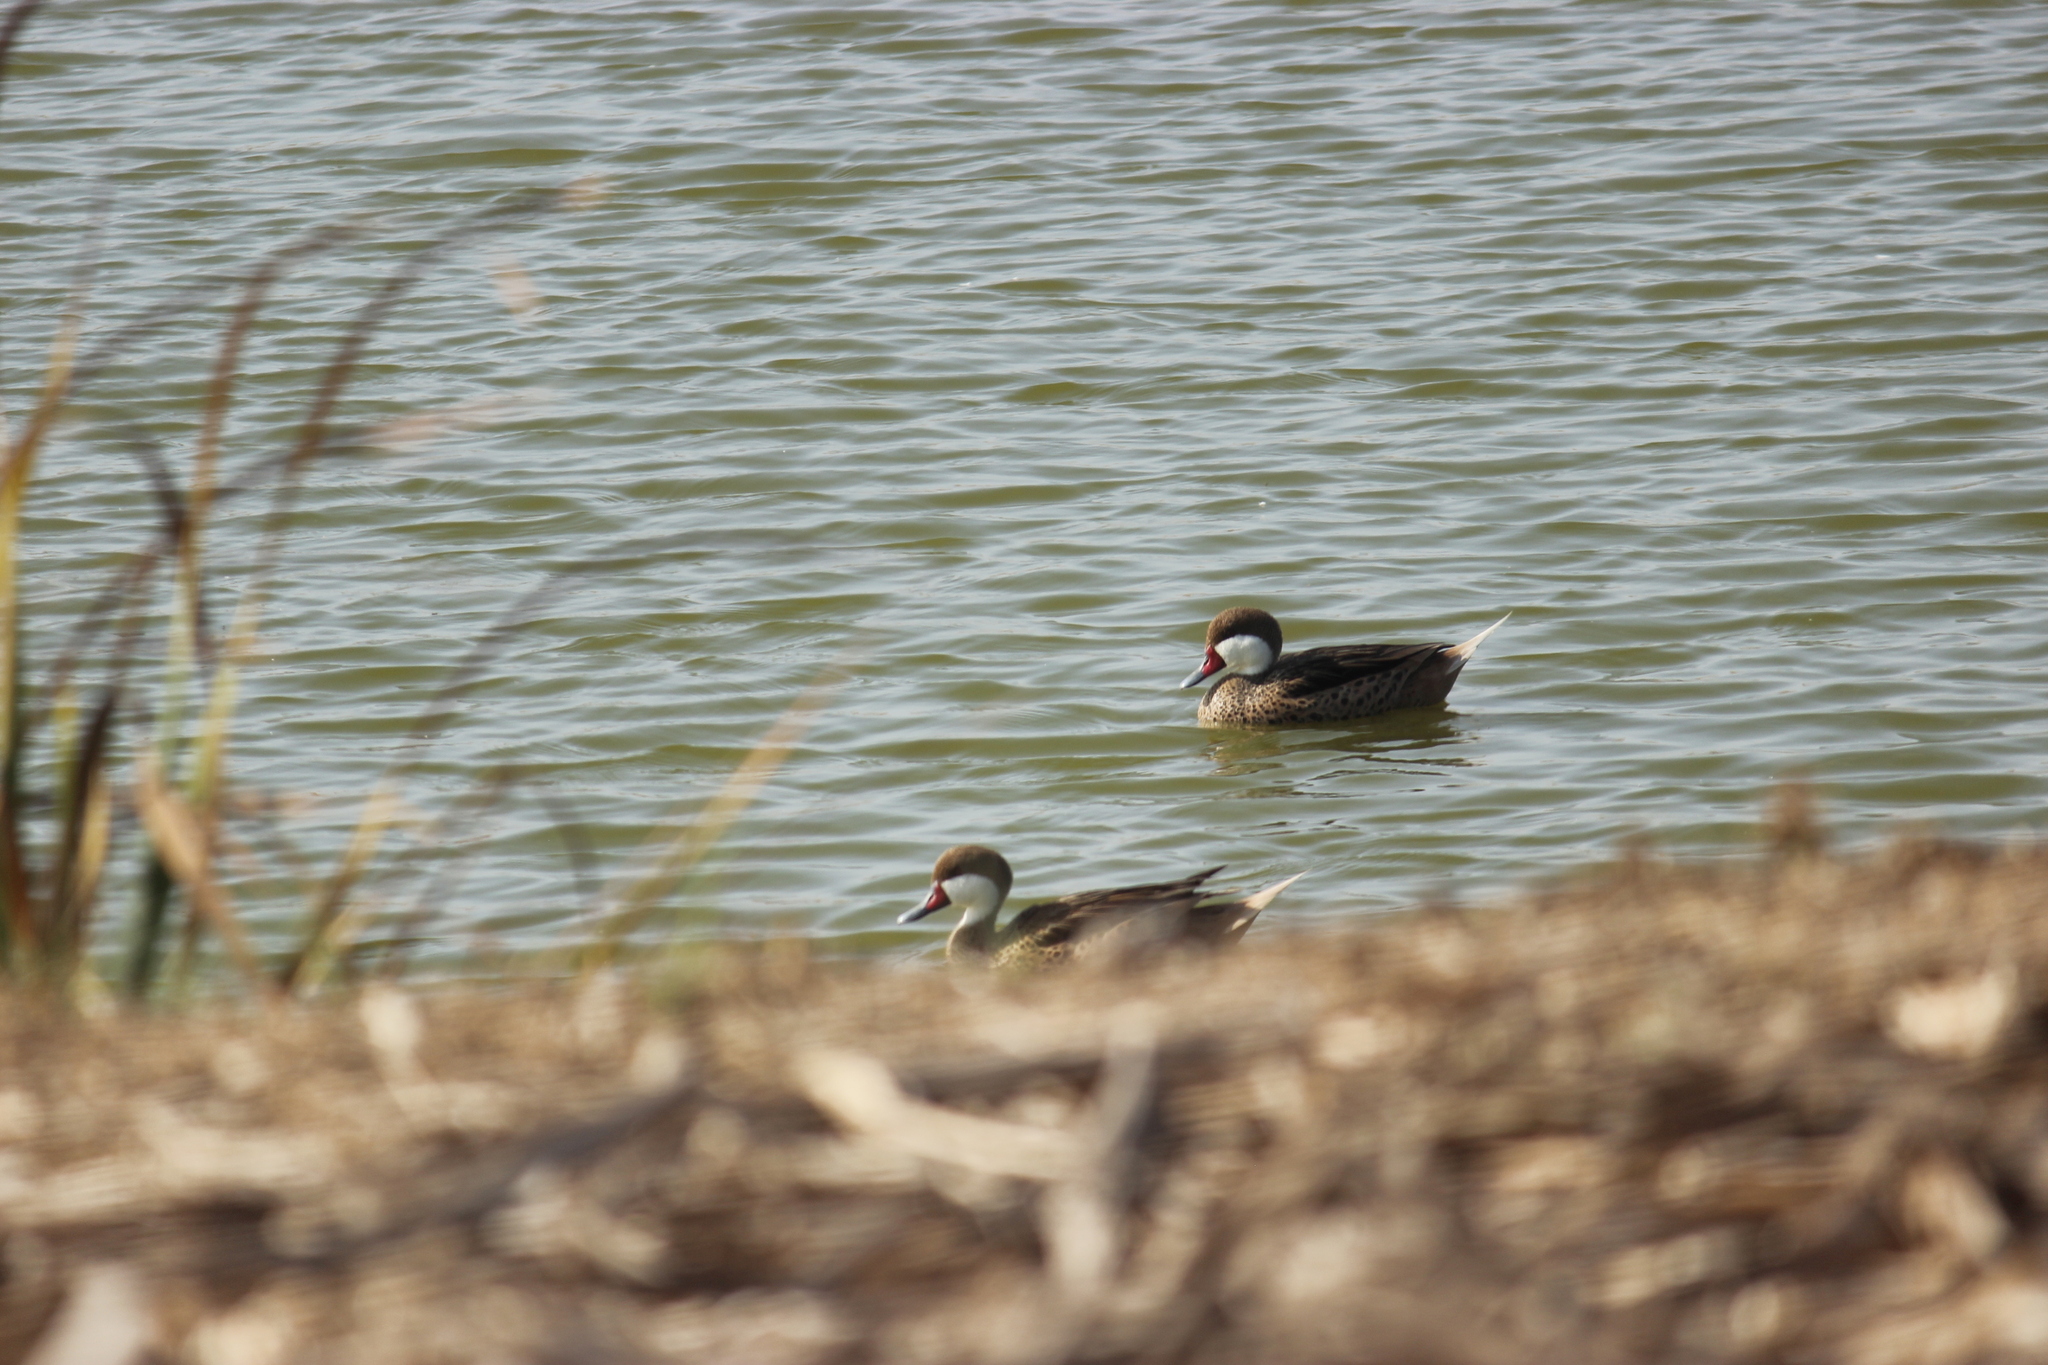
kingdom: Animalia
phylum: Chordata
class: Aves
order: Anseriformes
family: Anatidae
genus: Anas
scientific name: Anas bahamensis
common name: White-cheeked pintail
